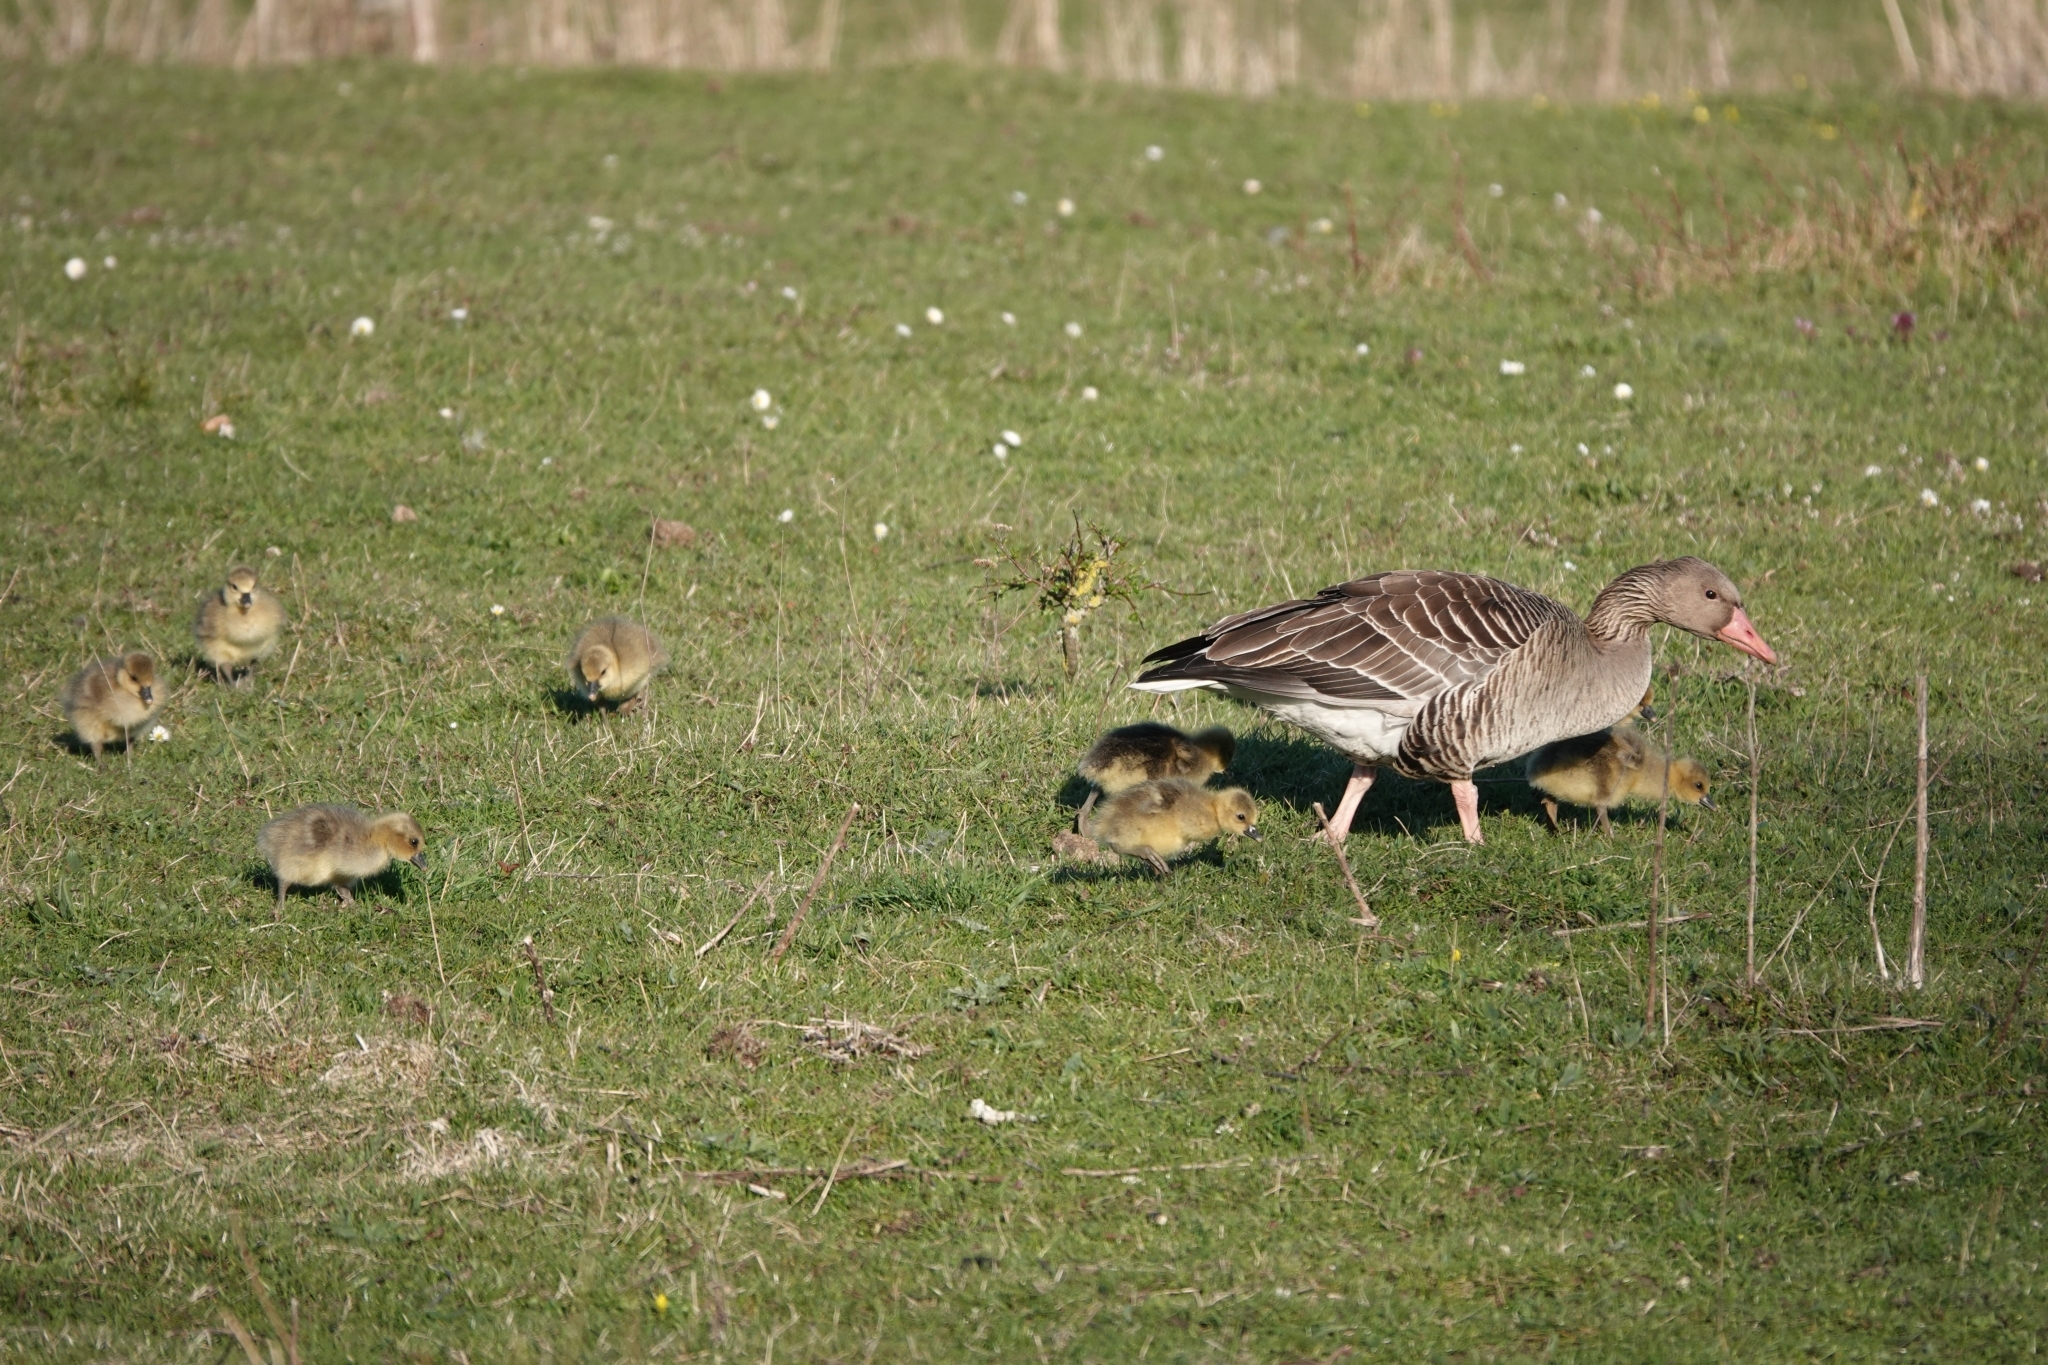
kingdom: Animalia
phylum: Chordata
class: Aves
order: Anseriformes
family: Anatidae
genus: Anser
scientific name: Anser anser
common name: Greylag goose
